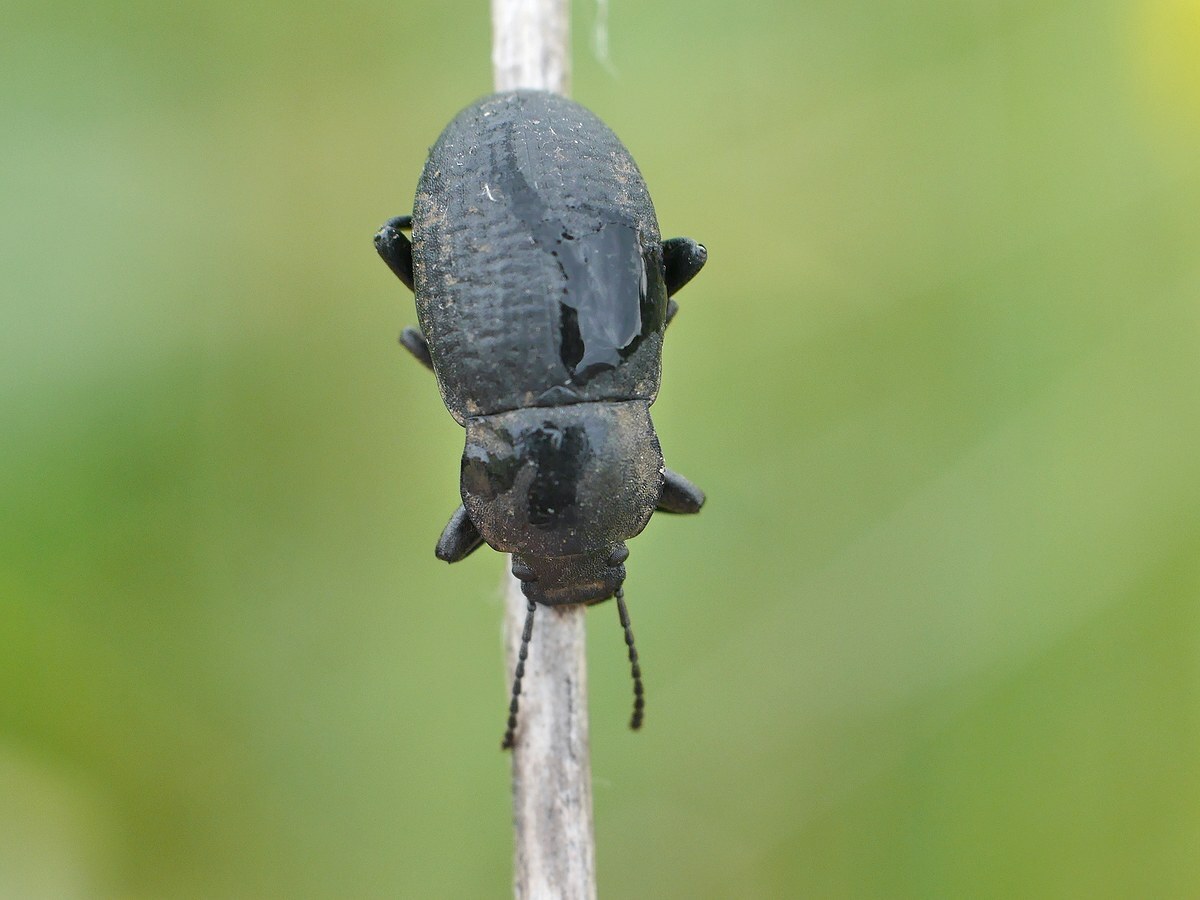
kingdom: Animalia
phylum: Arthropoda
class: Insecta
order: Coleoptera
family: Tenebrionidae
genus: Euboeus
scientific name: Euboeus
